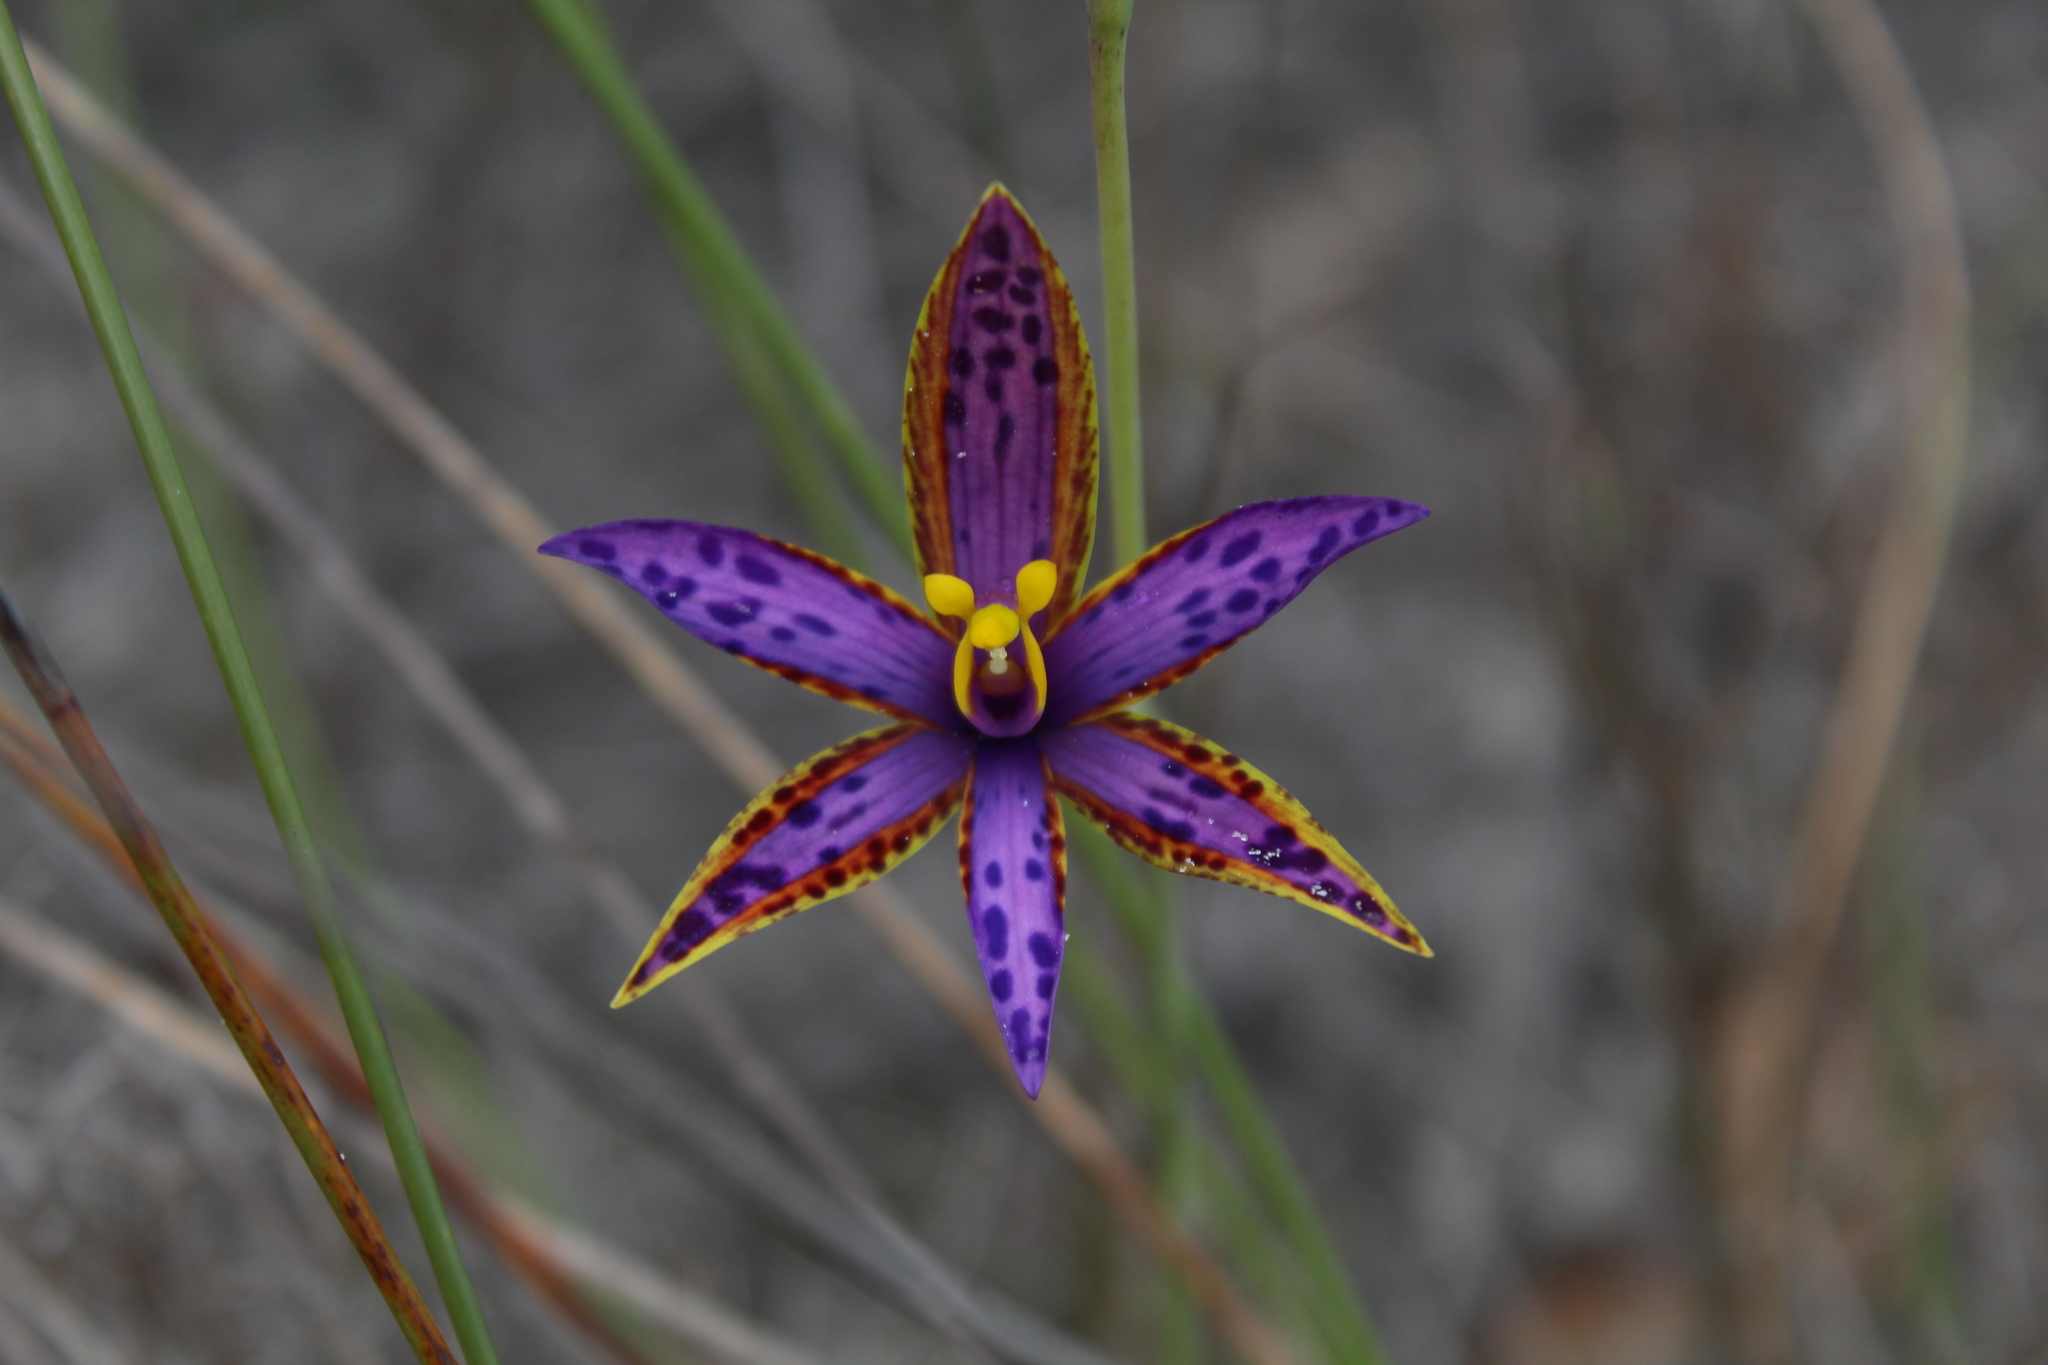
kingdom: Plantae
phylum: Tracheophyta
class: Liliopsida
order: Asparagales
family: Orchidaceae
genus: Thelymitra
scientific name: Thelymitra porphyrosticta
